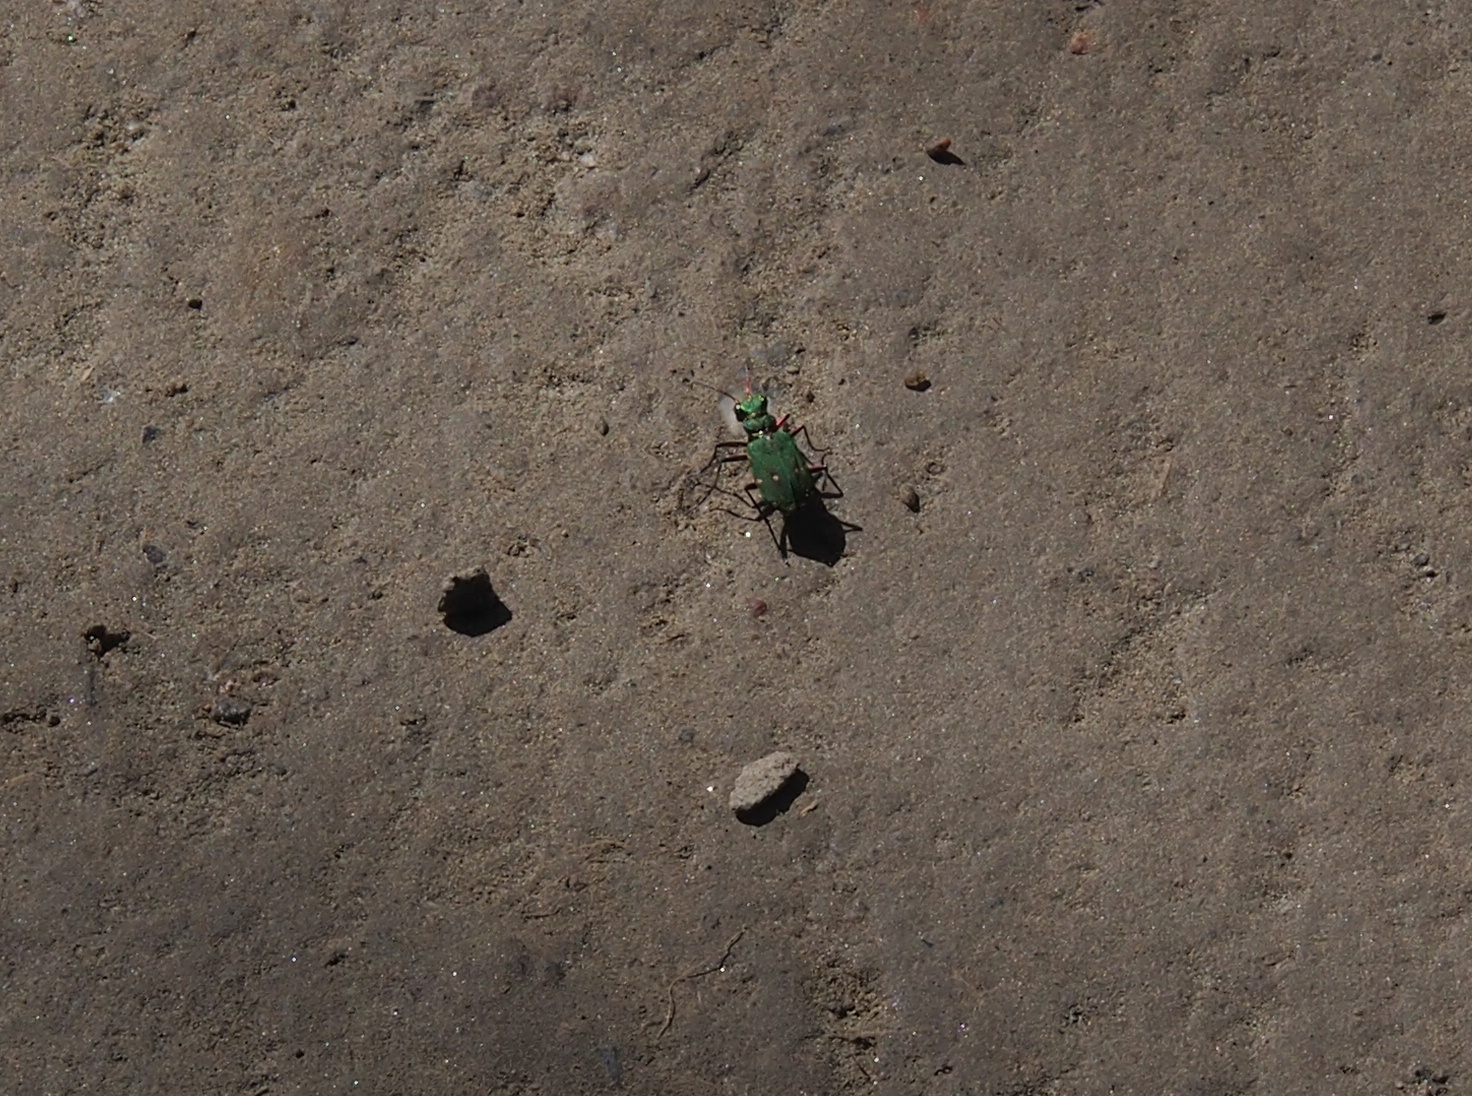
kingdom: Animalia
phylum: Arthropoda
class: Insecta
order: Coleoptera
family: Carabidae
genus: Cicindela
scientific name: Cicindela campestris
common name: Common tiger beetle
